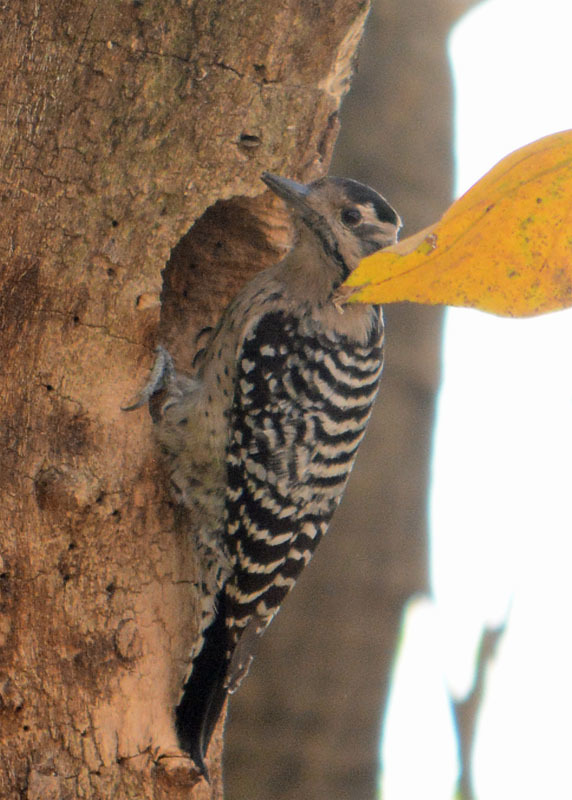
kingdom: Animalia
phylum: Chordata
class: Aves
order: Piciformes
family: Picidae
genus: Dryobates
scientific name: Dryobates scalaris
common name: Ladder-backed woodpecker
